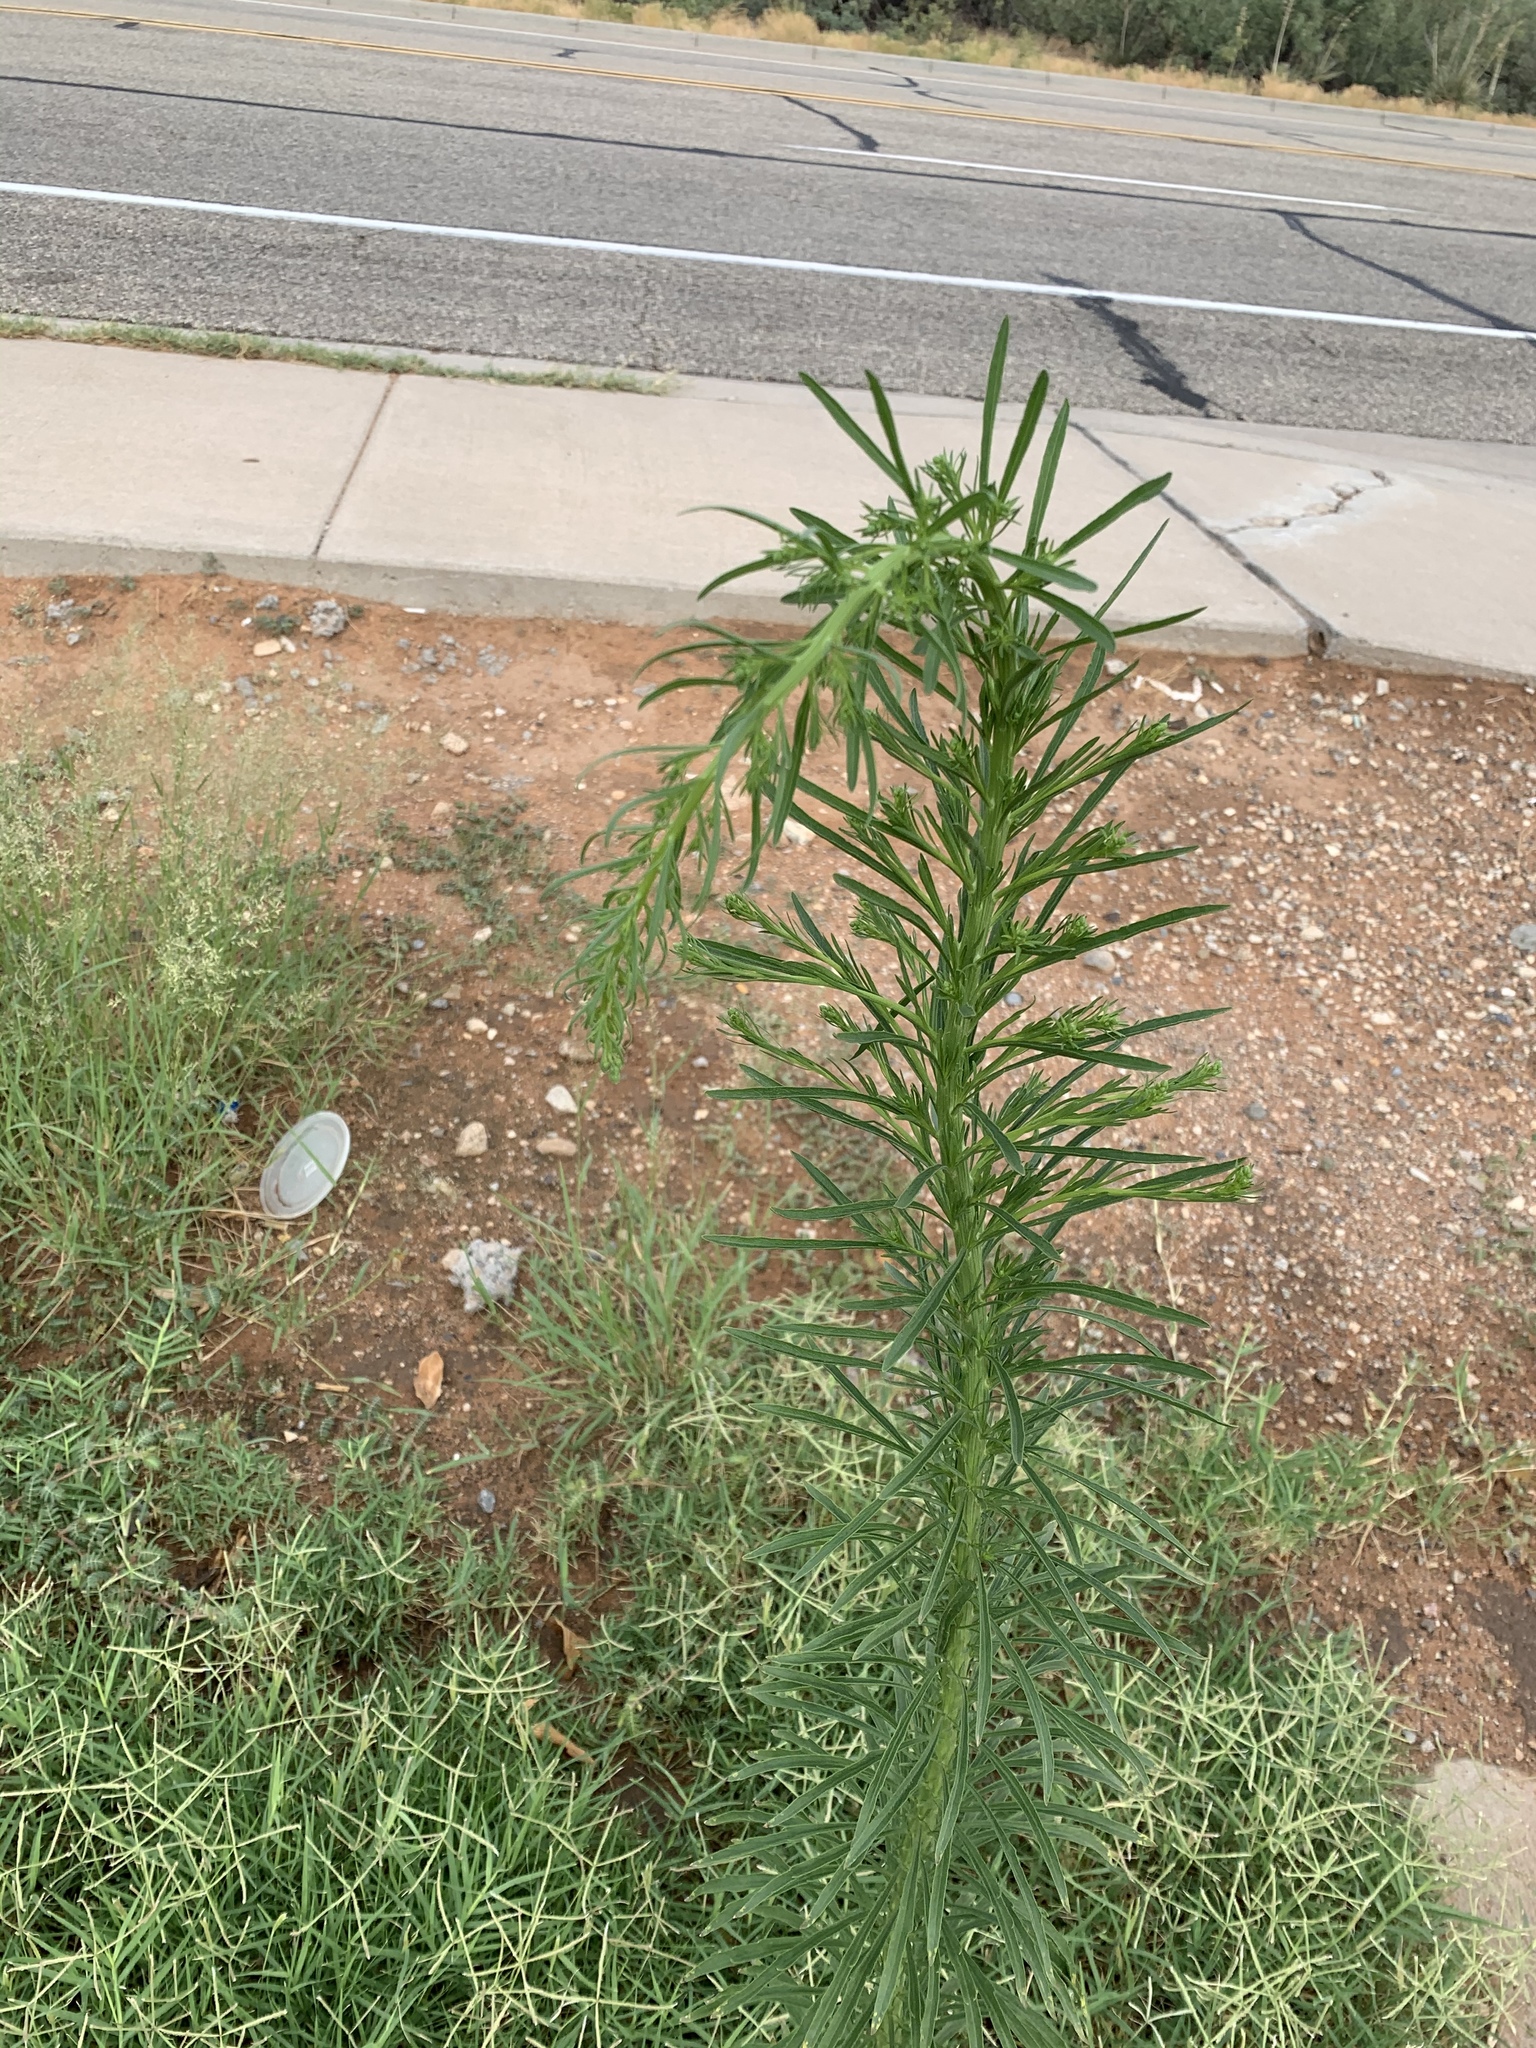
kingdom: Plantae
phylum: Tracheophyta
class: Magnoliopsida
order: Asterales
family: Asteraceae
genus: Erigeron
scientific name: Erigeron canadensis
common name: Canadian fleabane
